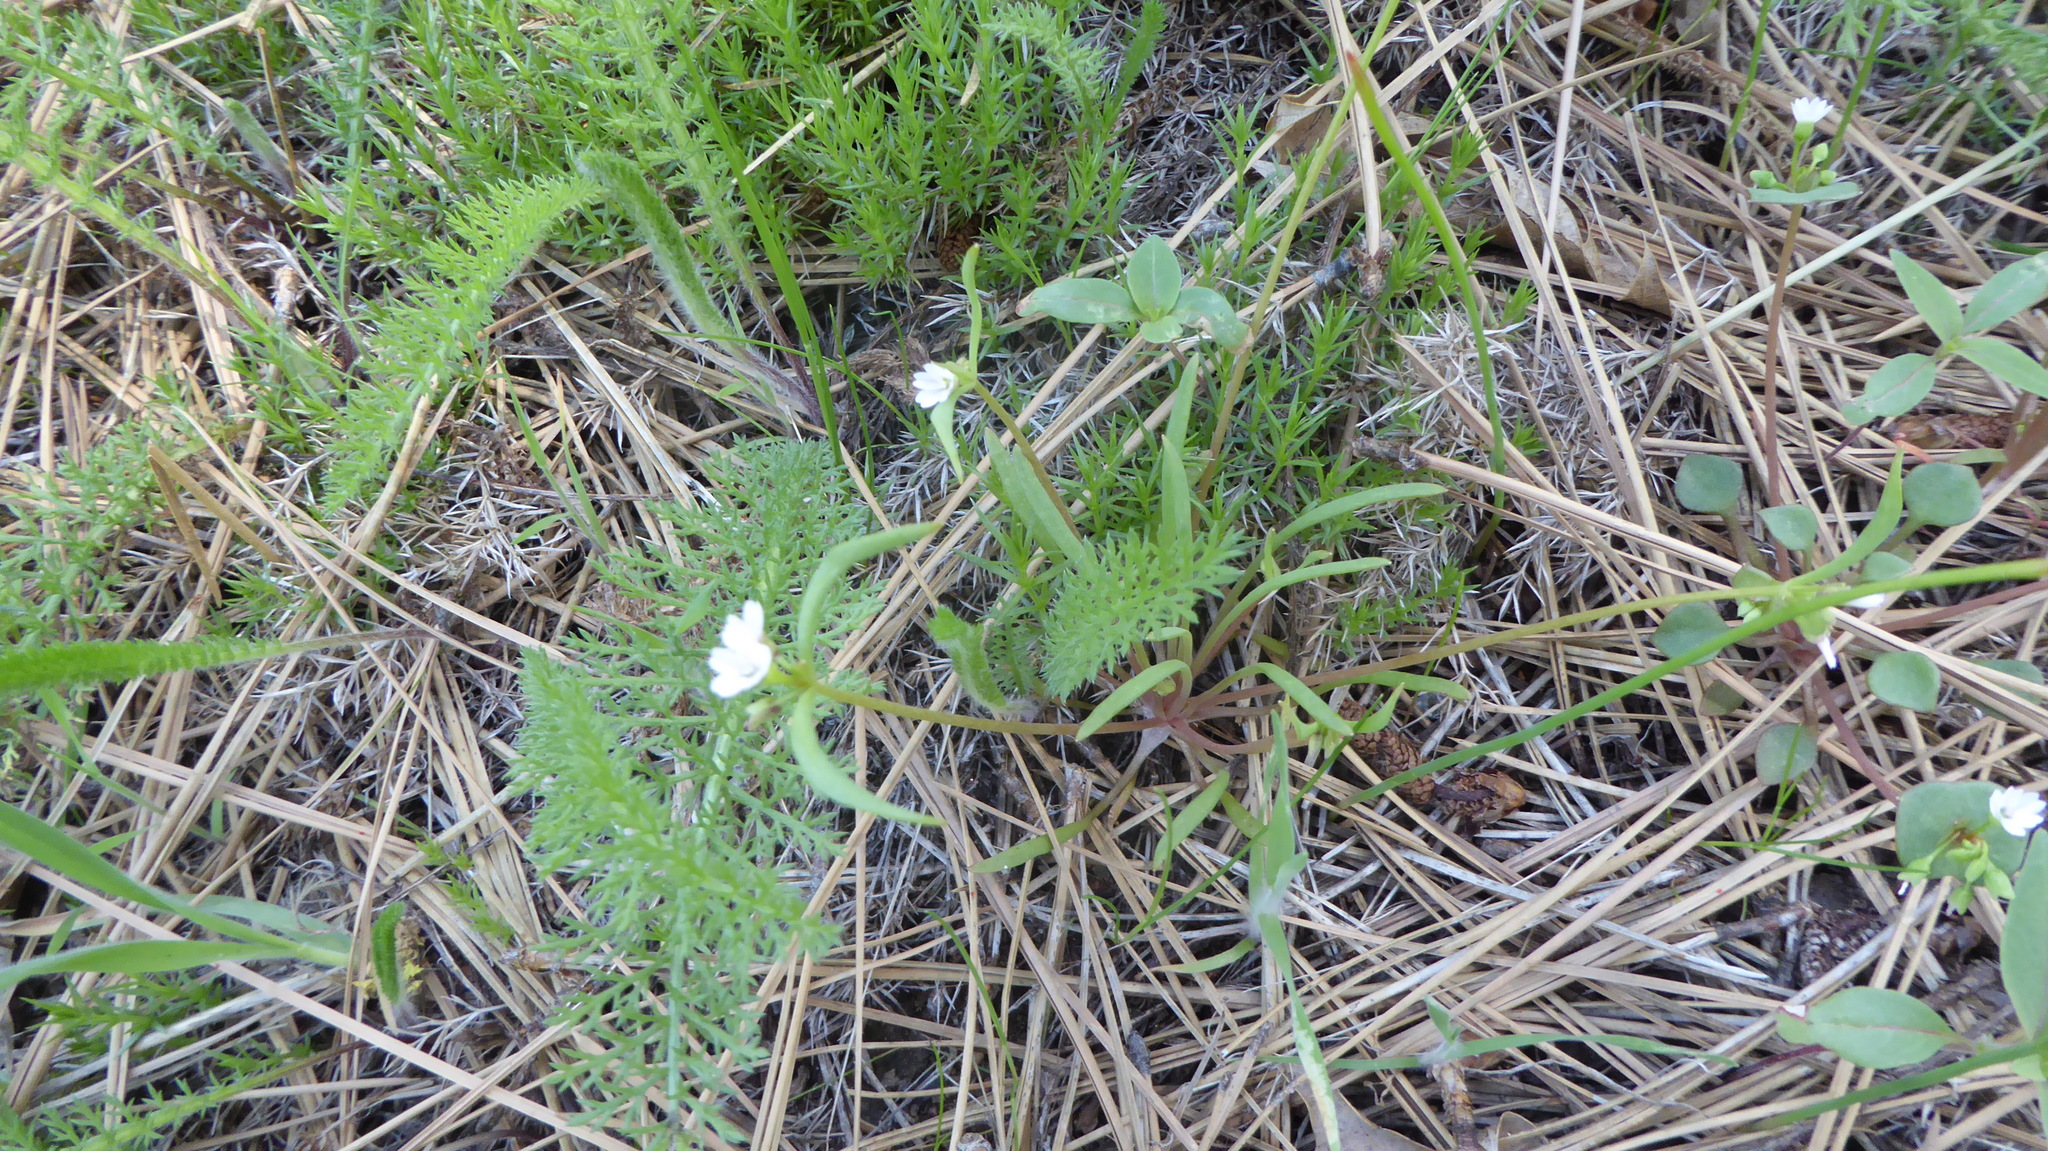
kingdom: Plantae
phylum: Tracheophyta
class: Magnoliopsida
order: Caryophyllales
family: Montiaceae
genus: Claytonia
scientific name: Claytonia parviflora
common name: Indian-lettuce
